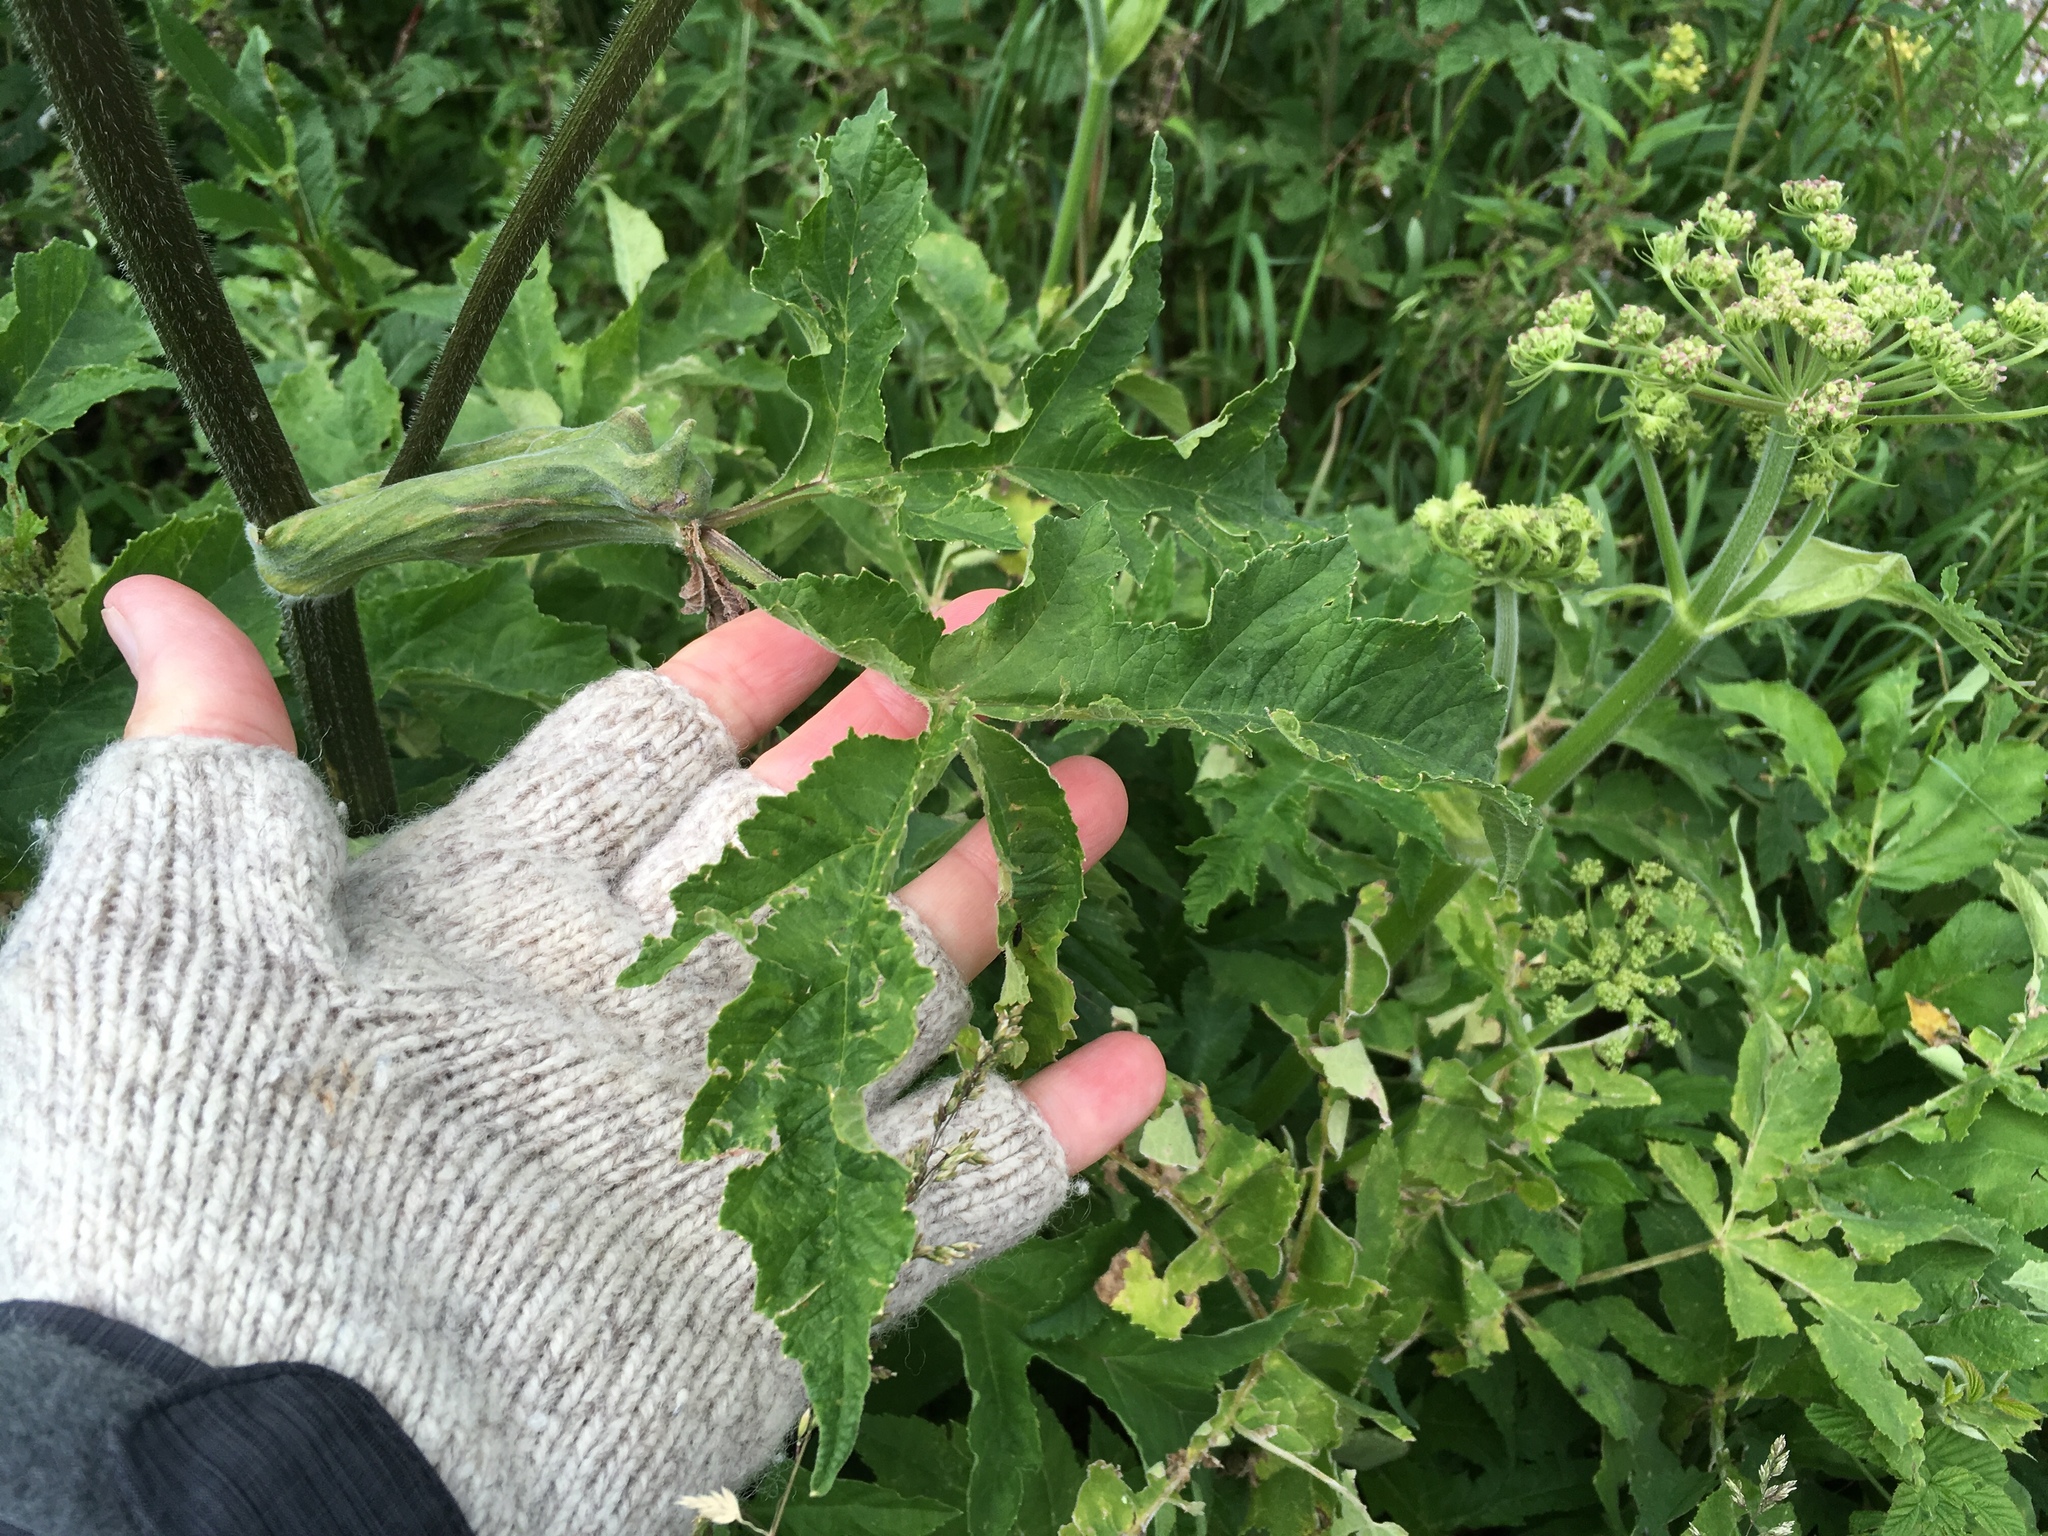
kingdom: Plantae
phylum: Tracheophyta
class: Magnoliopsida
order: Apiales
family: Apiaceae
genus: Heracleum
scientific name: Heracleum sphondylium
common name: Hogweed
